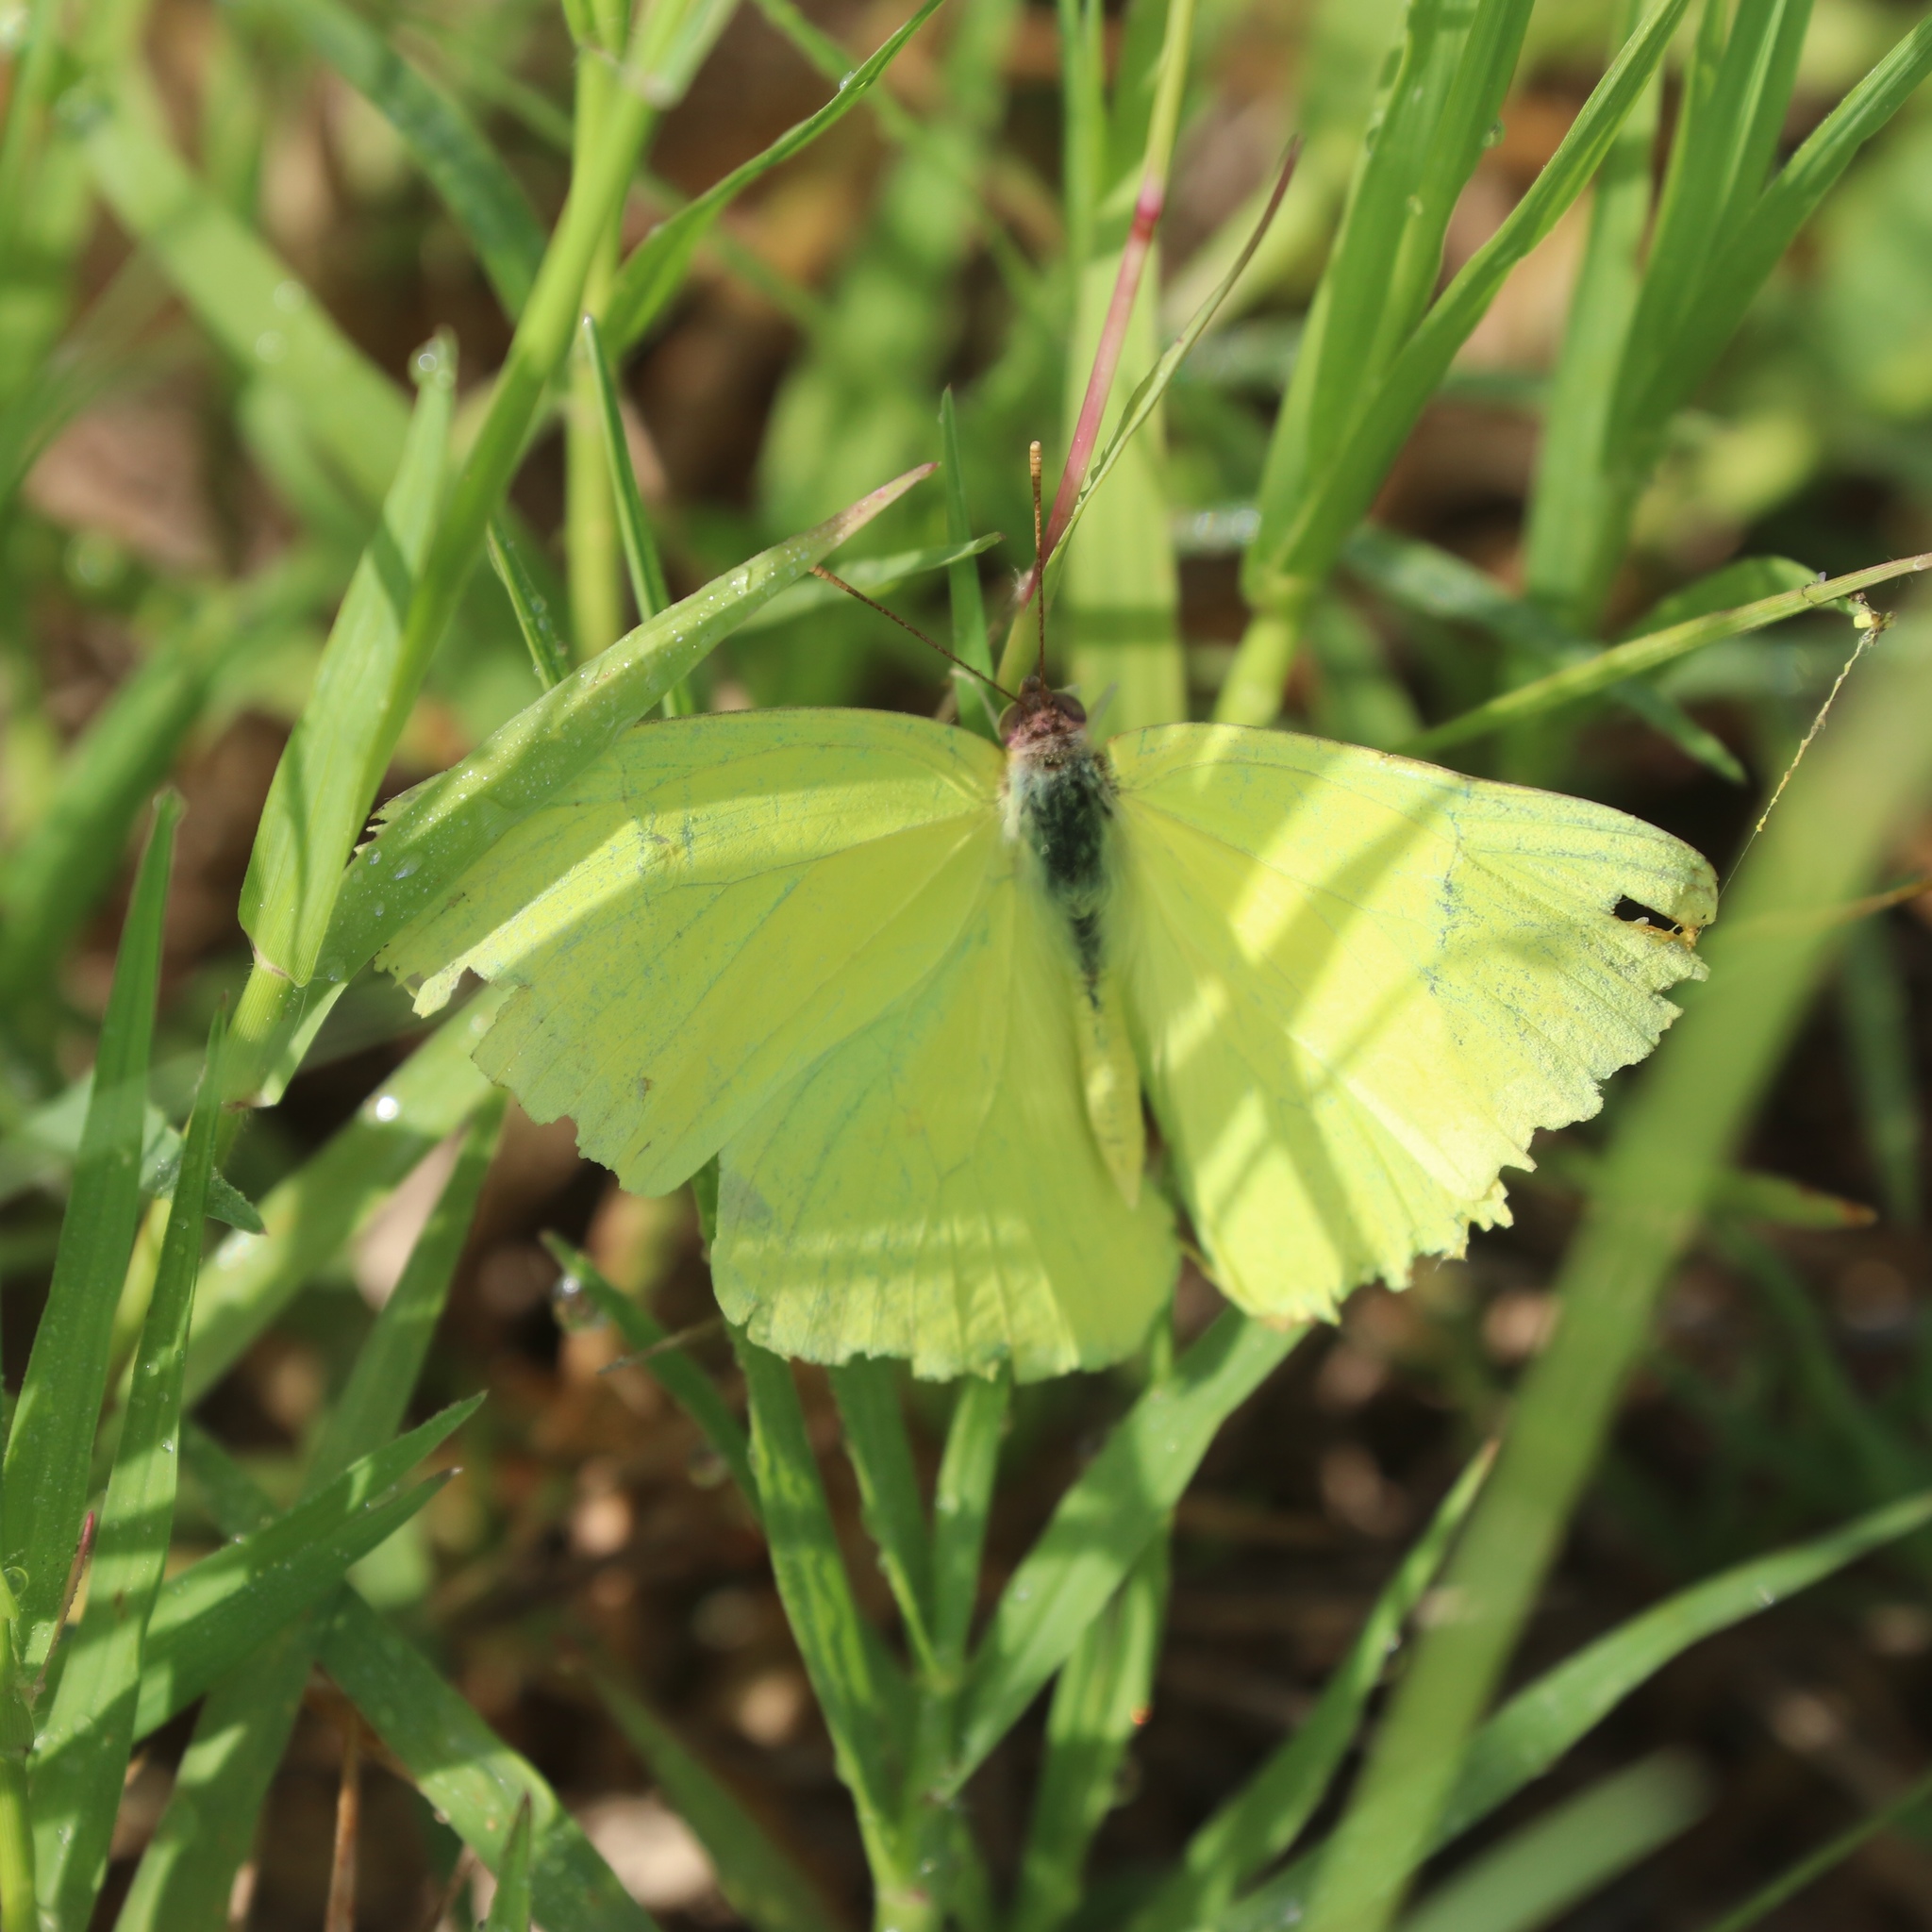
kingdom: Animalia
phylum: Arthropoda
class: Insecta
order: Lepidoptera
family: Pieridae
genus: Phoebis
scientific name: Phoebis sennae
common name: Cloudless sulphur
